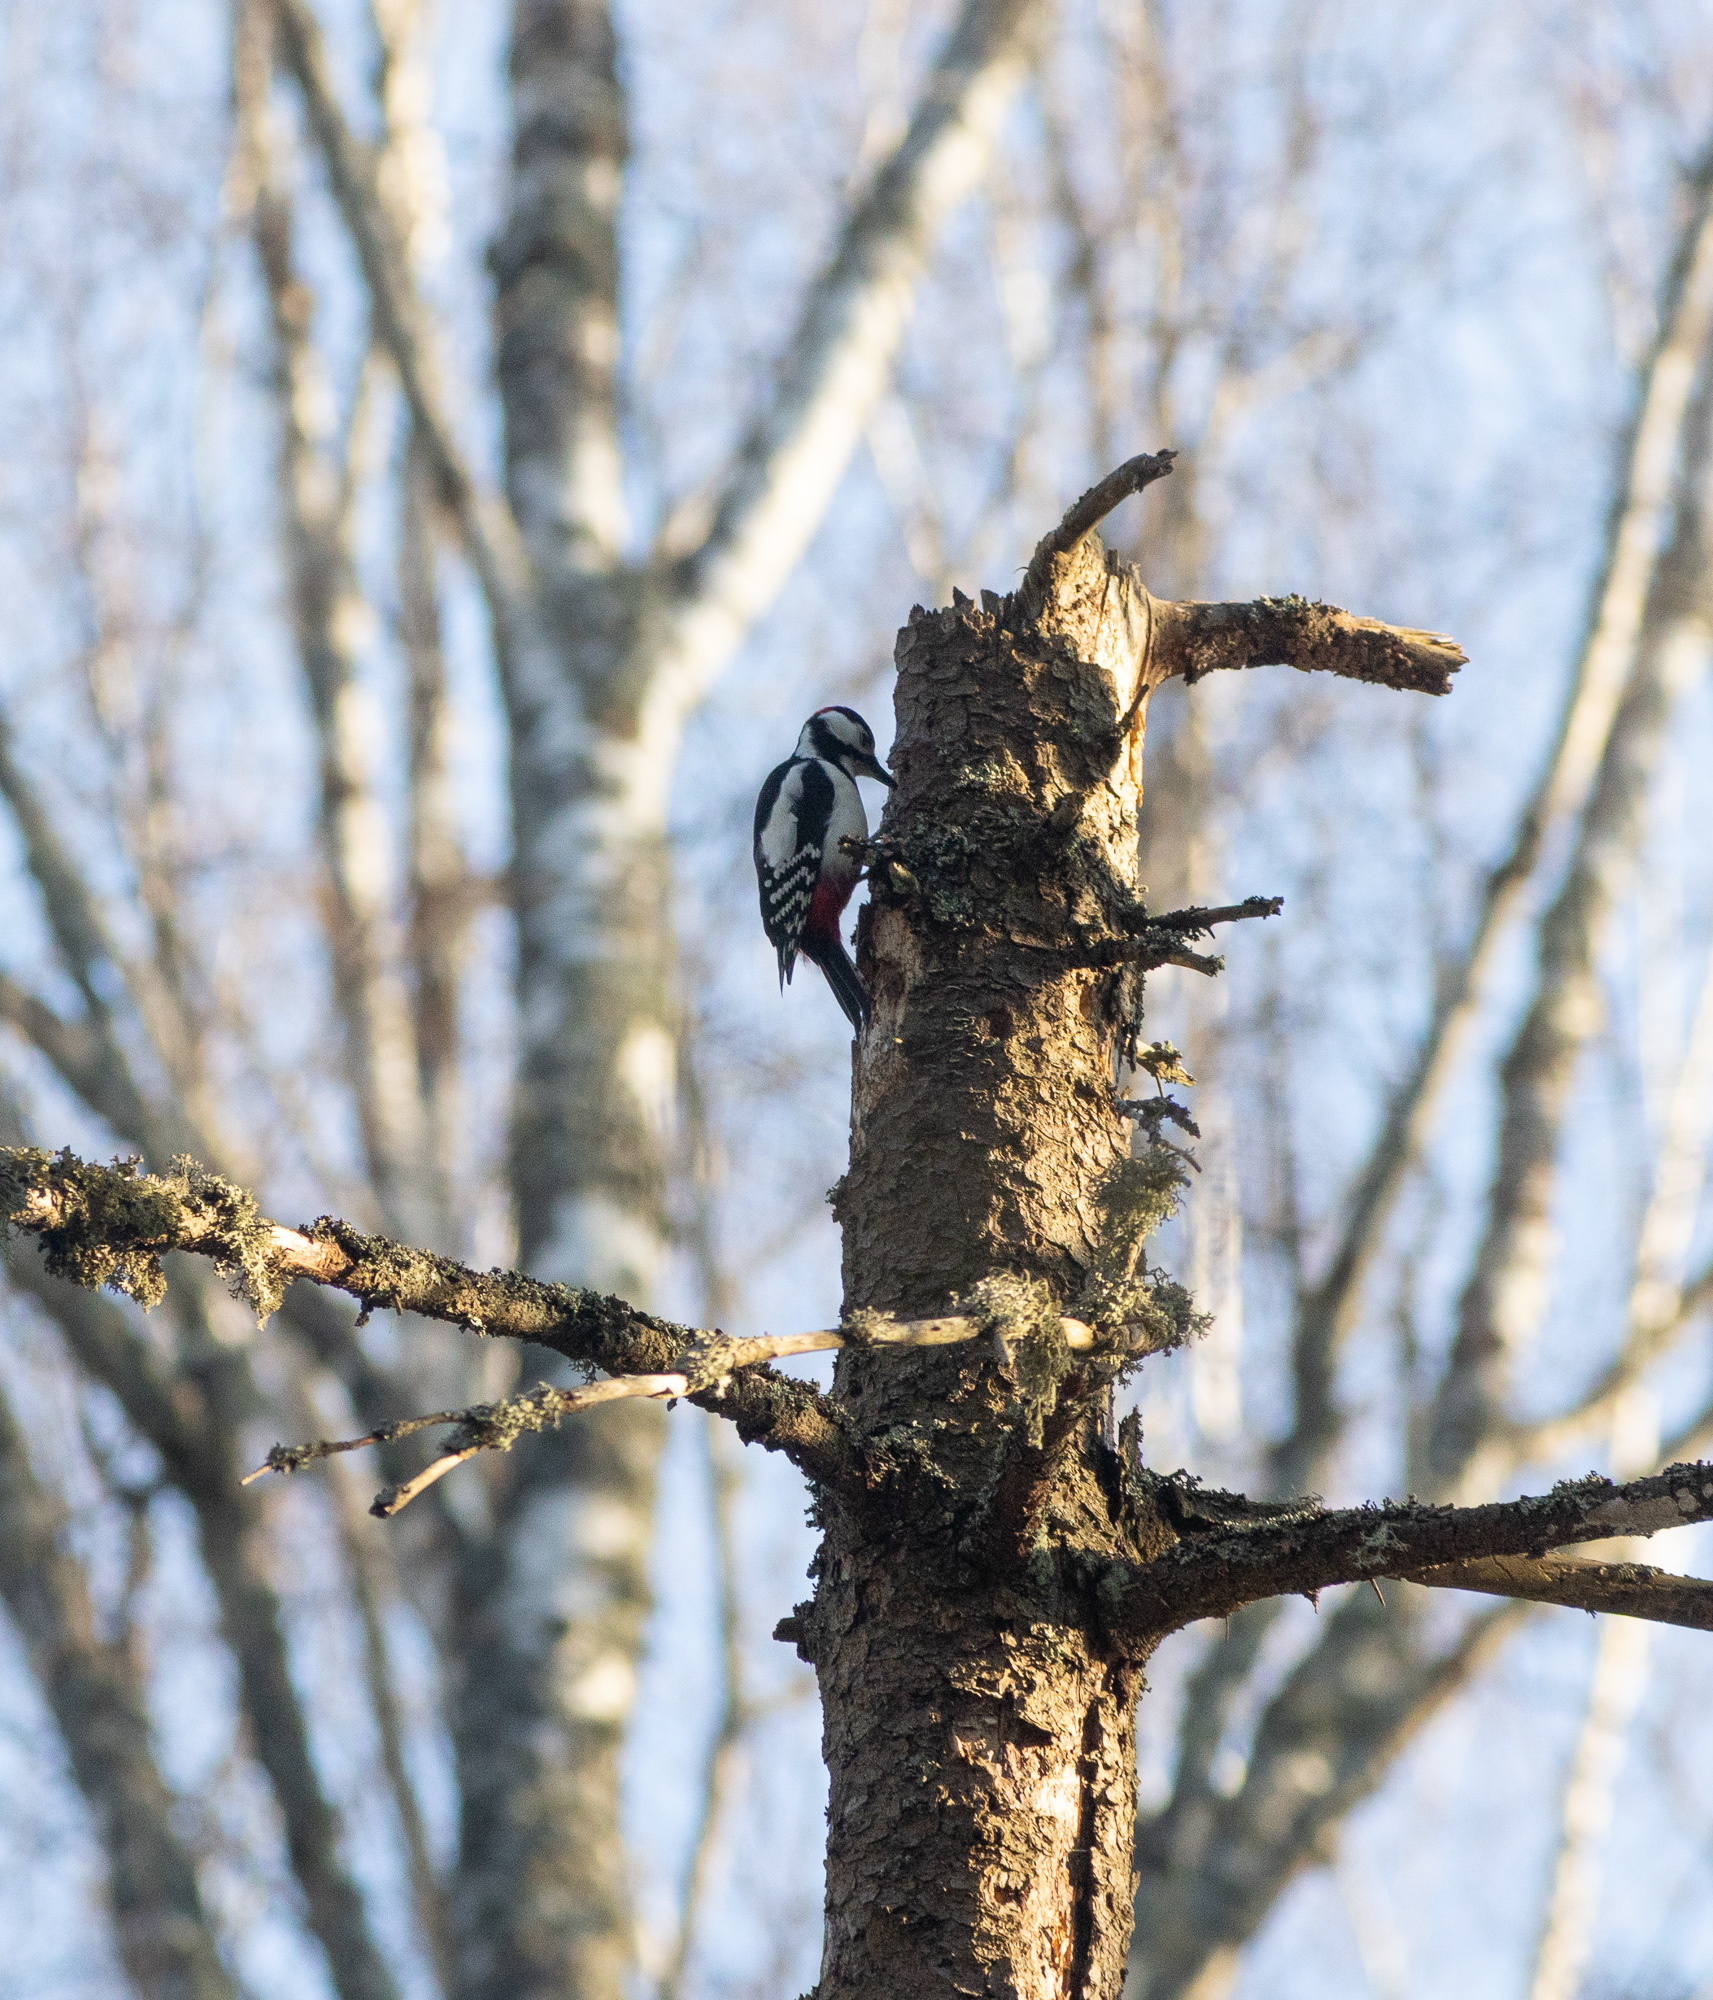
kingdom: Animalia
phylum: Chordata
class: Aves
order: Piciformes
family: Picidae
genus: Dendrocopos
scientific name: Dendrocopos major
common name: Great spotted woodpecker
